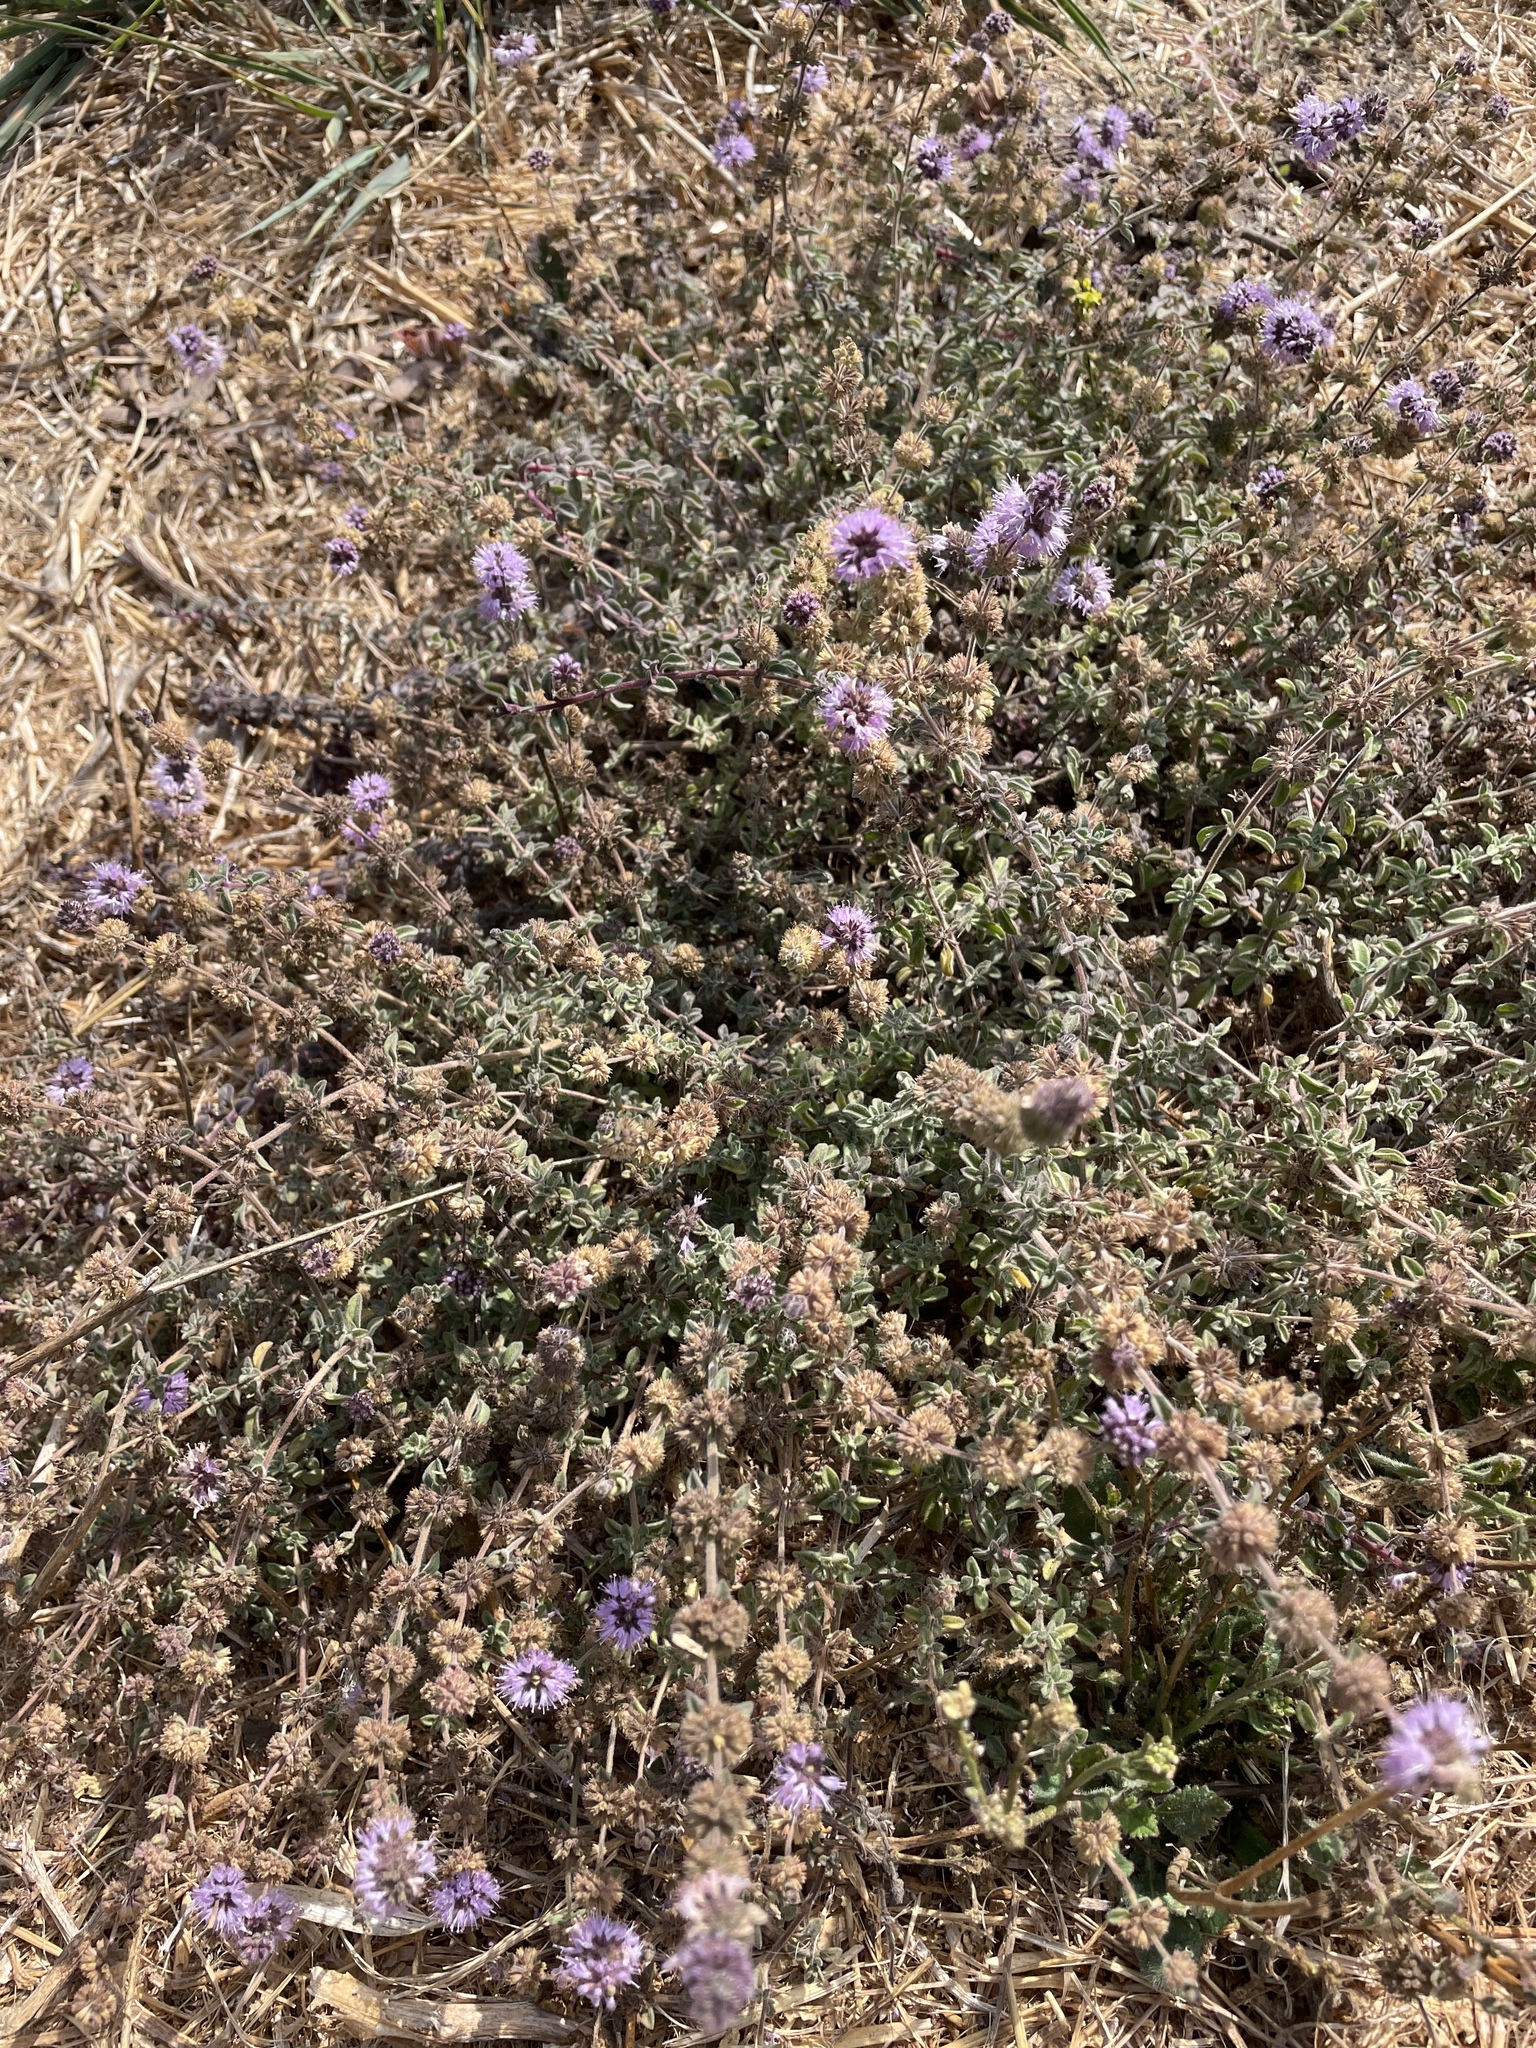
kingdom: Plantae
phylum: Tracheophyta
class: Magnoliopsida
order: Lamiales
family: Lamiaceae
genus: Mentha
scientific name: Mentha pulegium
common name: Pennyroyal
